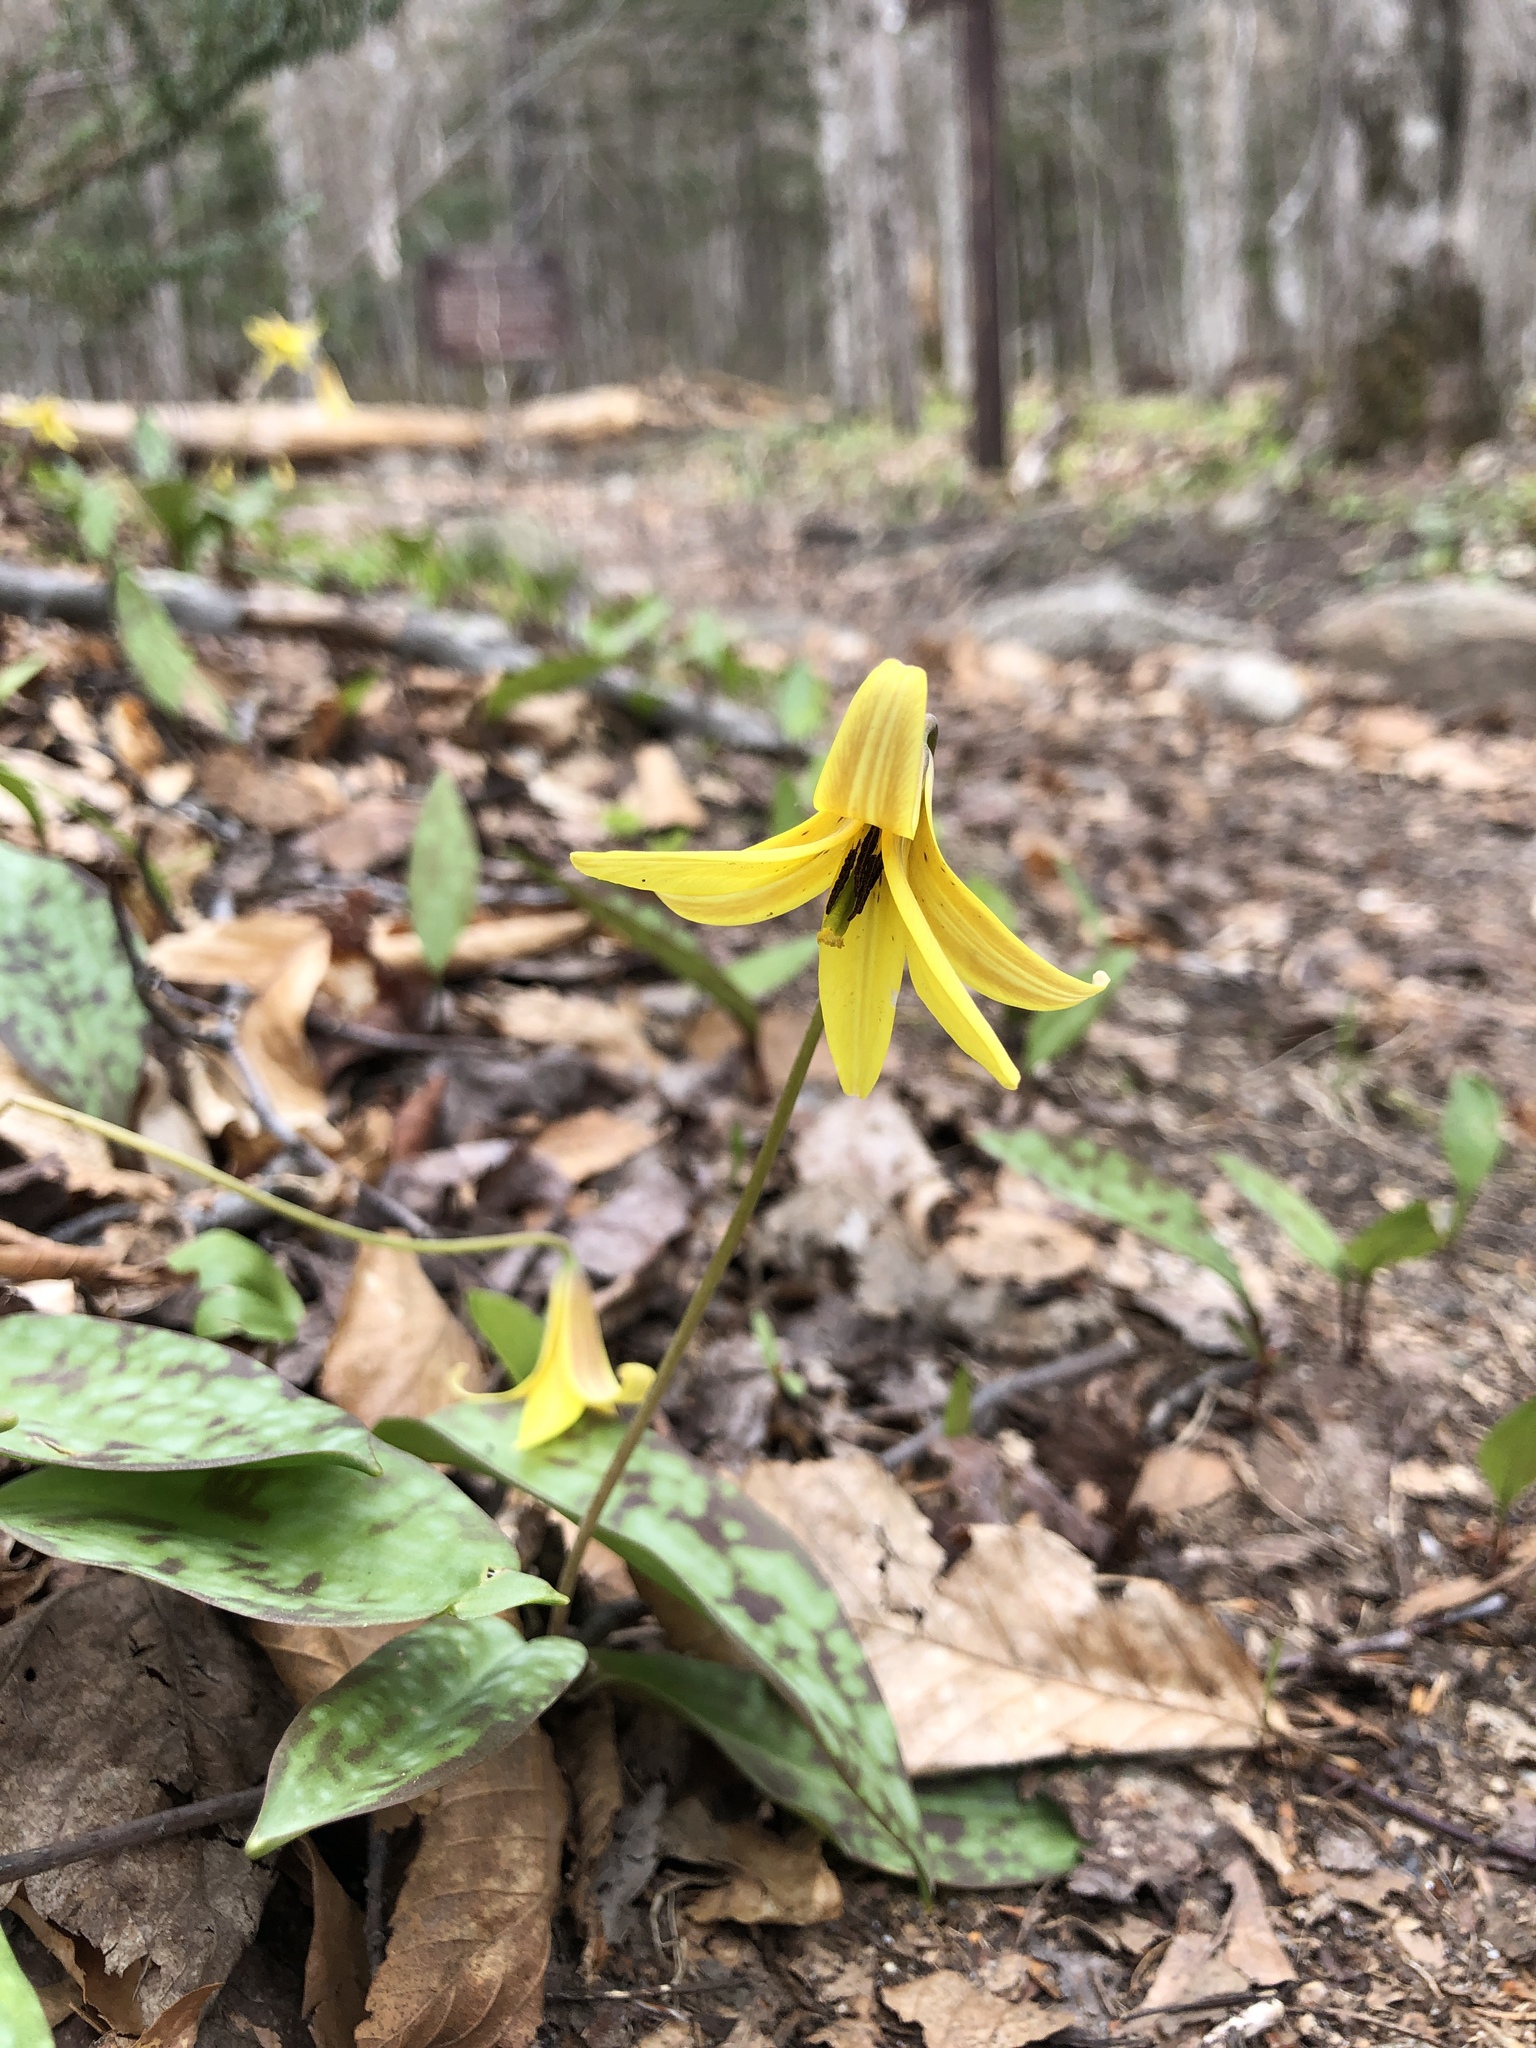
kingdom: Plantae
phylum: Tracheophyta
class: Liliopsida
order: Liliales
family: Liliaceae
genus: Erythronium
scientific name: Erythronium americanum
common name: Yellow adder's-tongue
